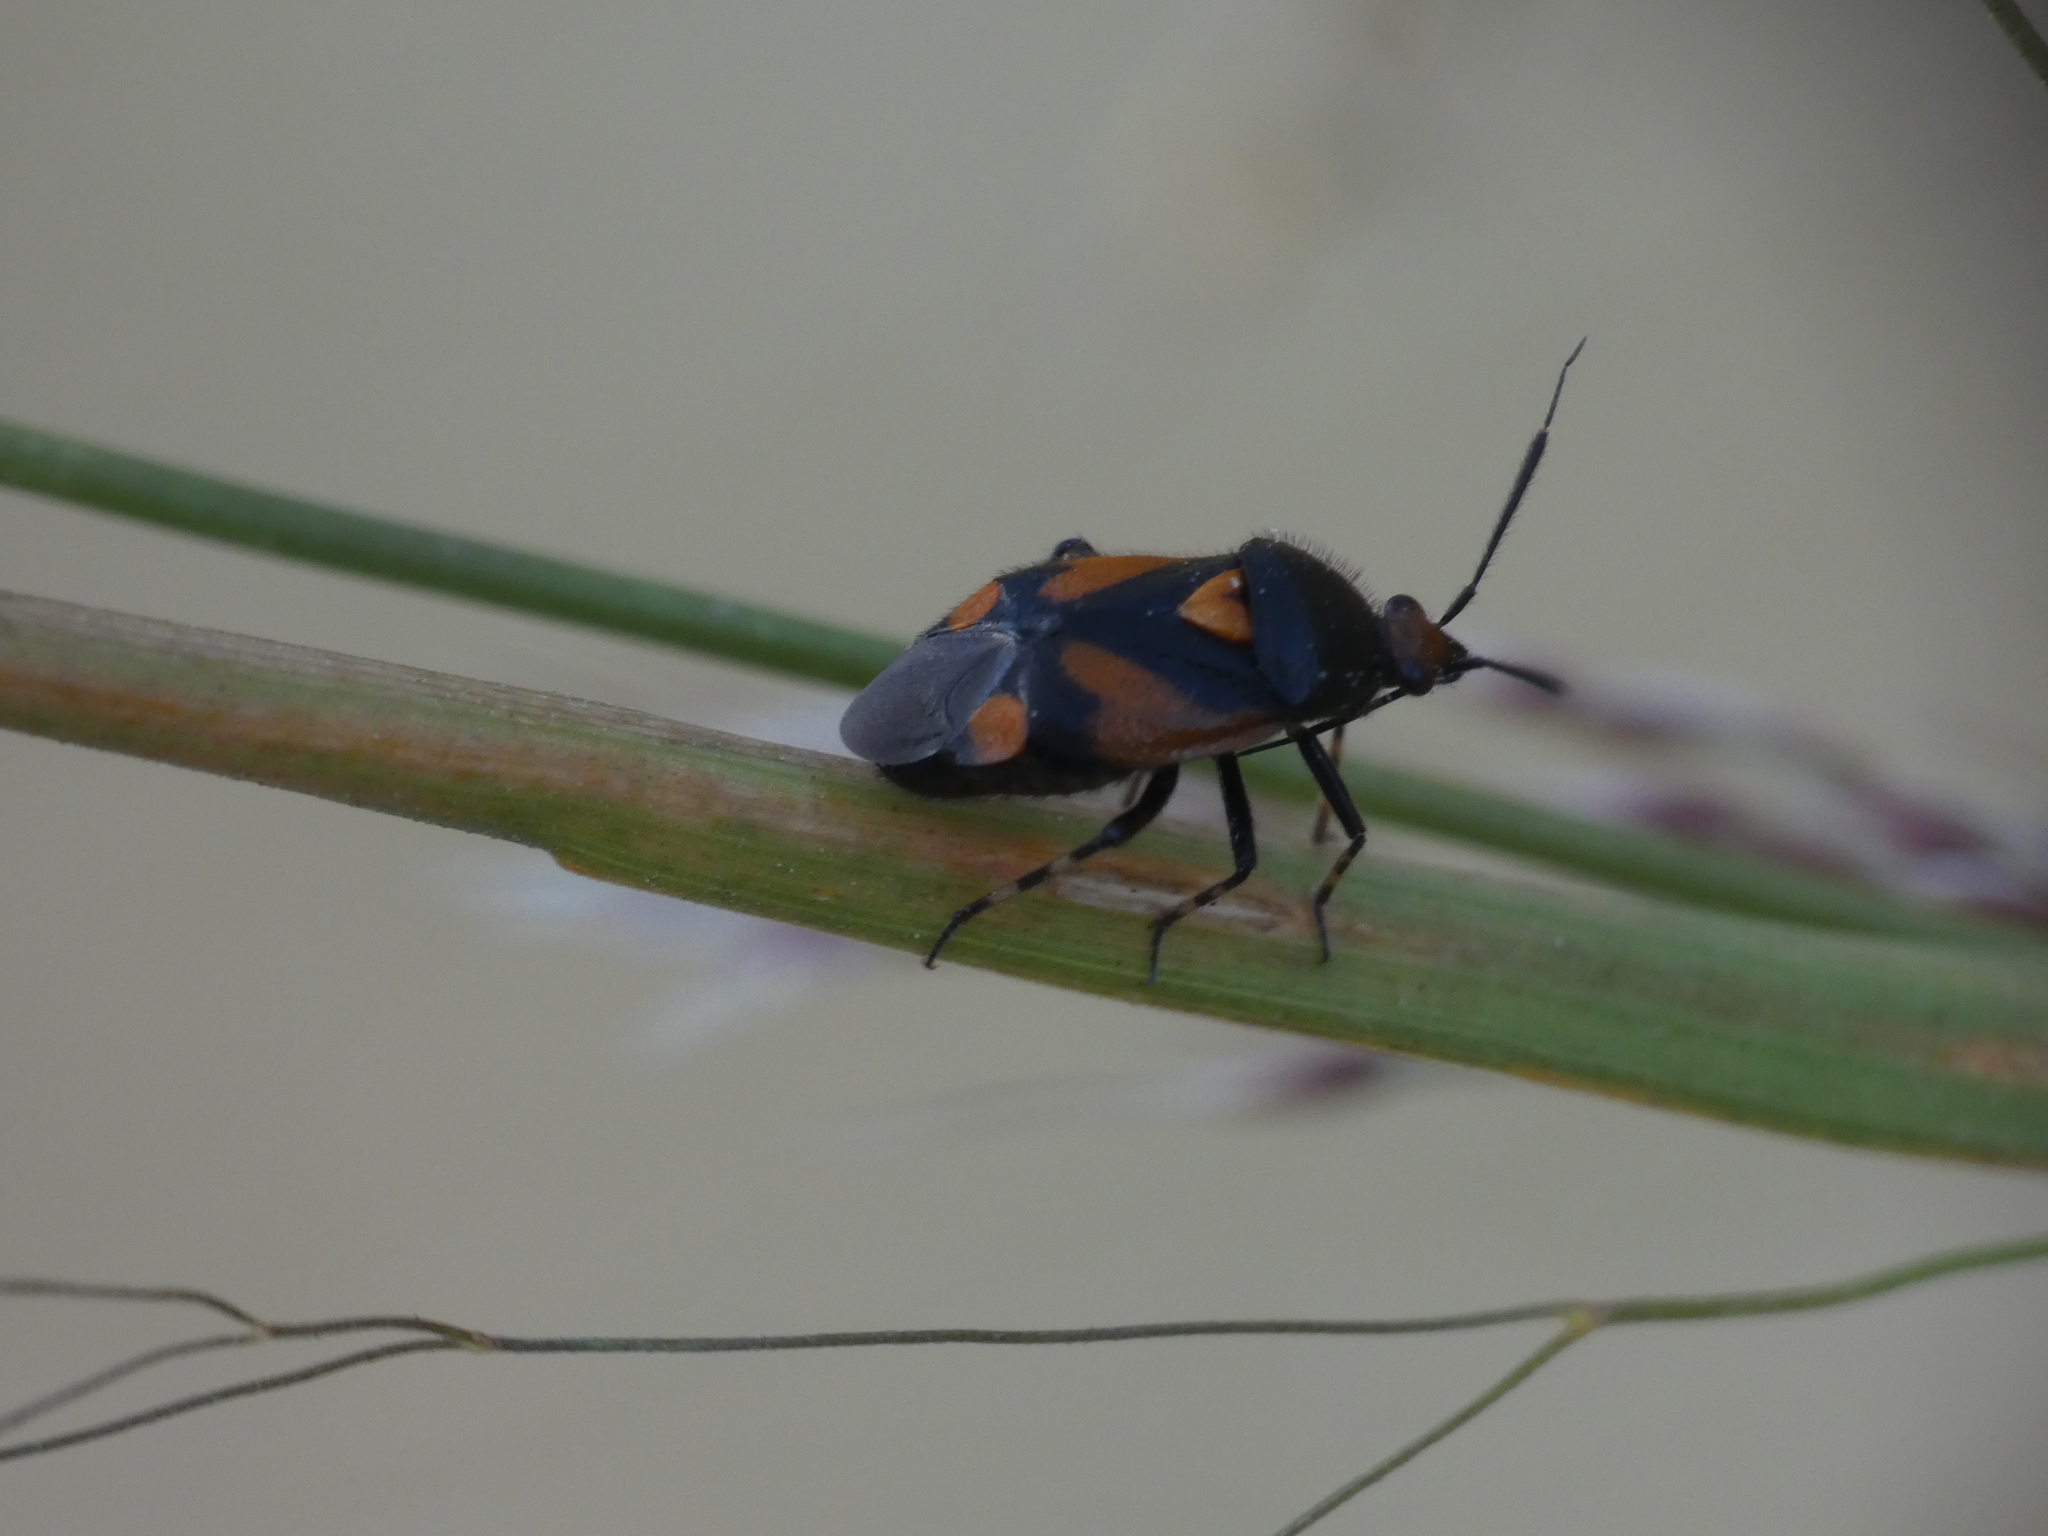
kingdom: Animalia
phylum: Arthropoda
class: Insecta
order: Hemiptera
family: Miridae
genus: Deraeocoris
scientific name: Deraeocoris schach
